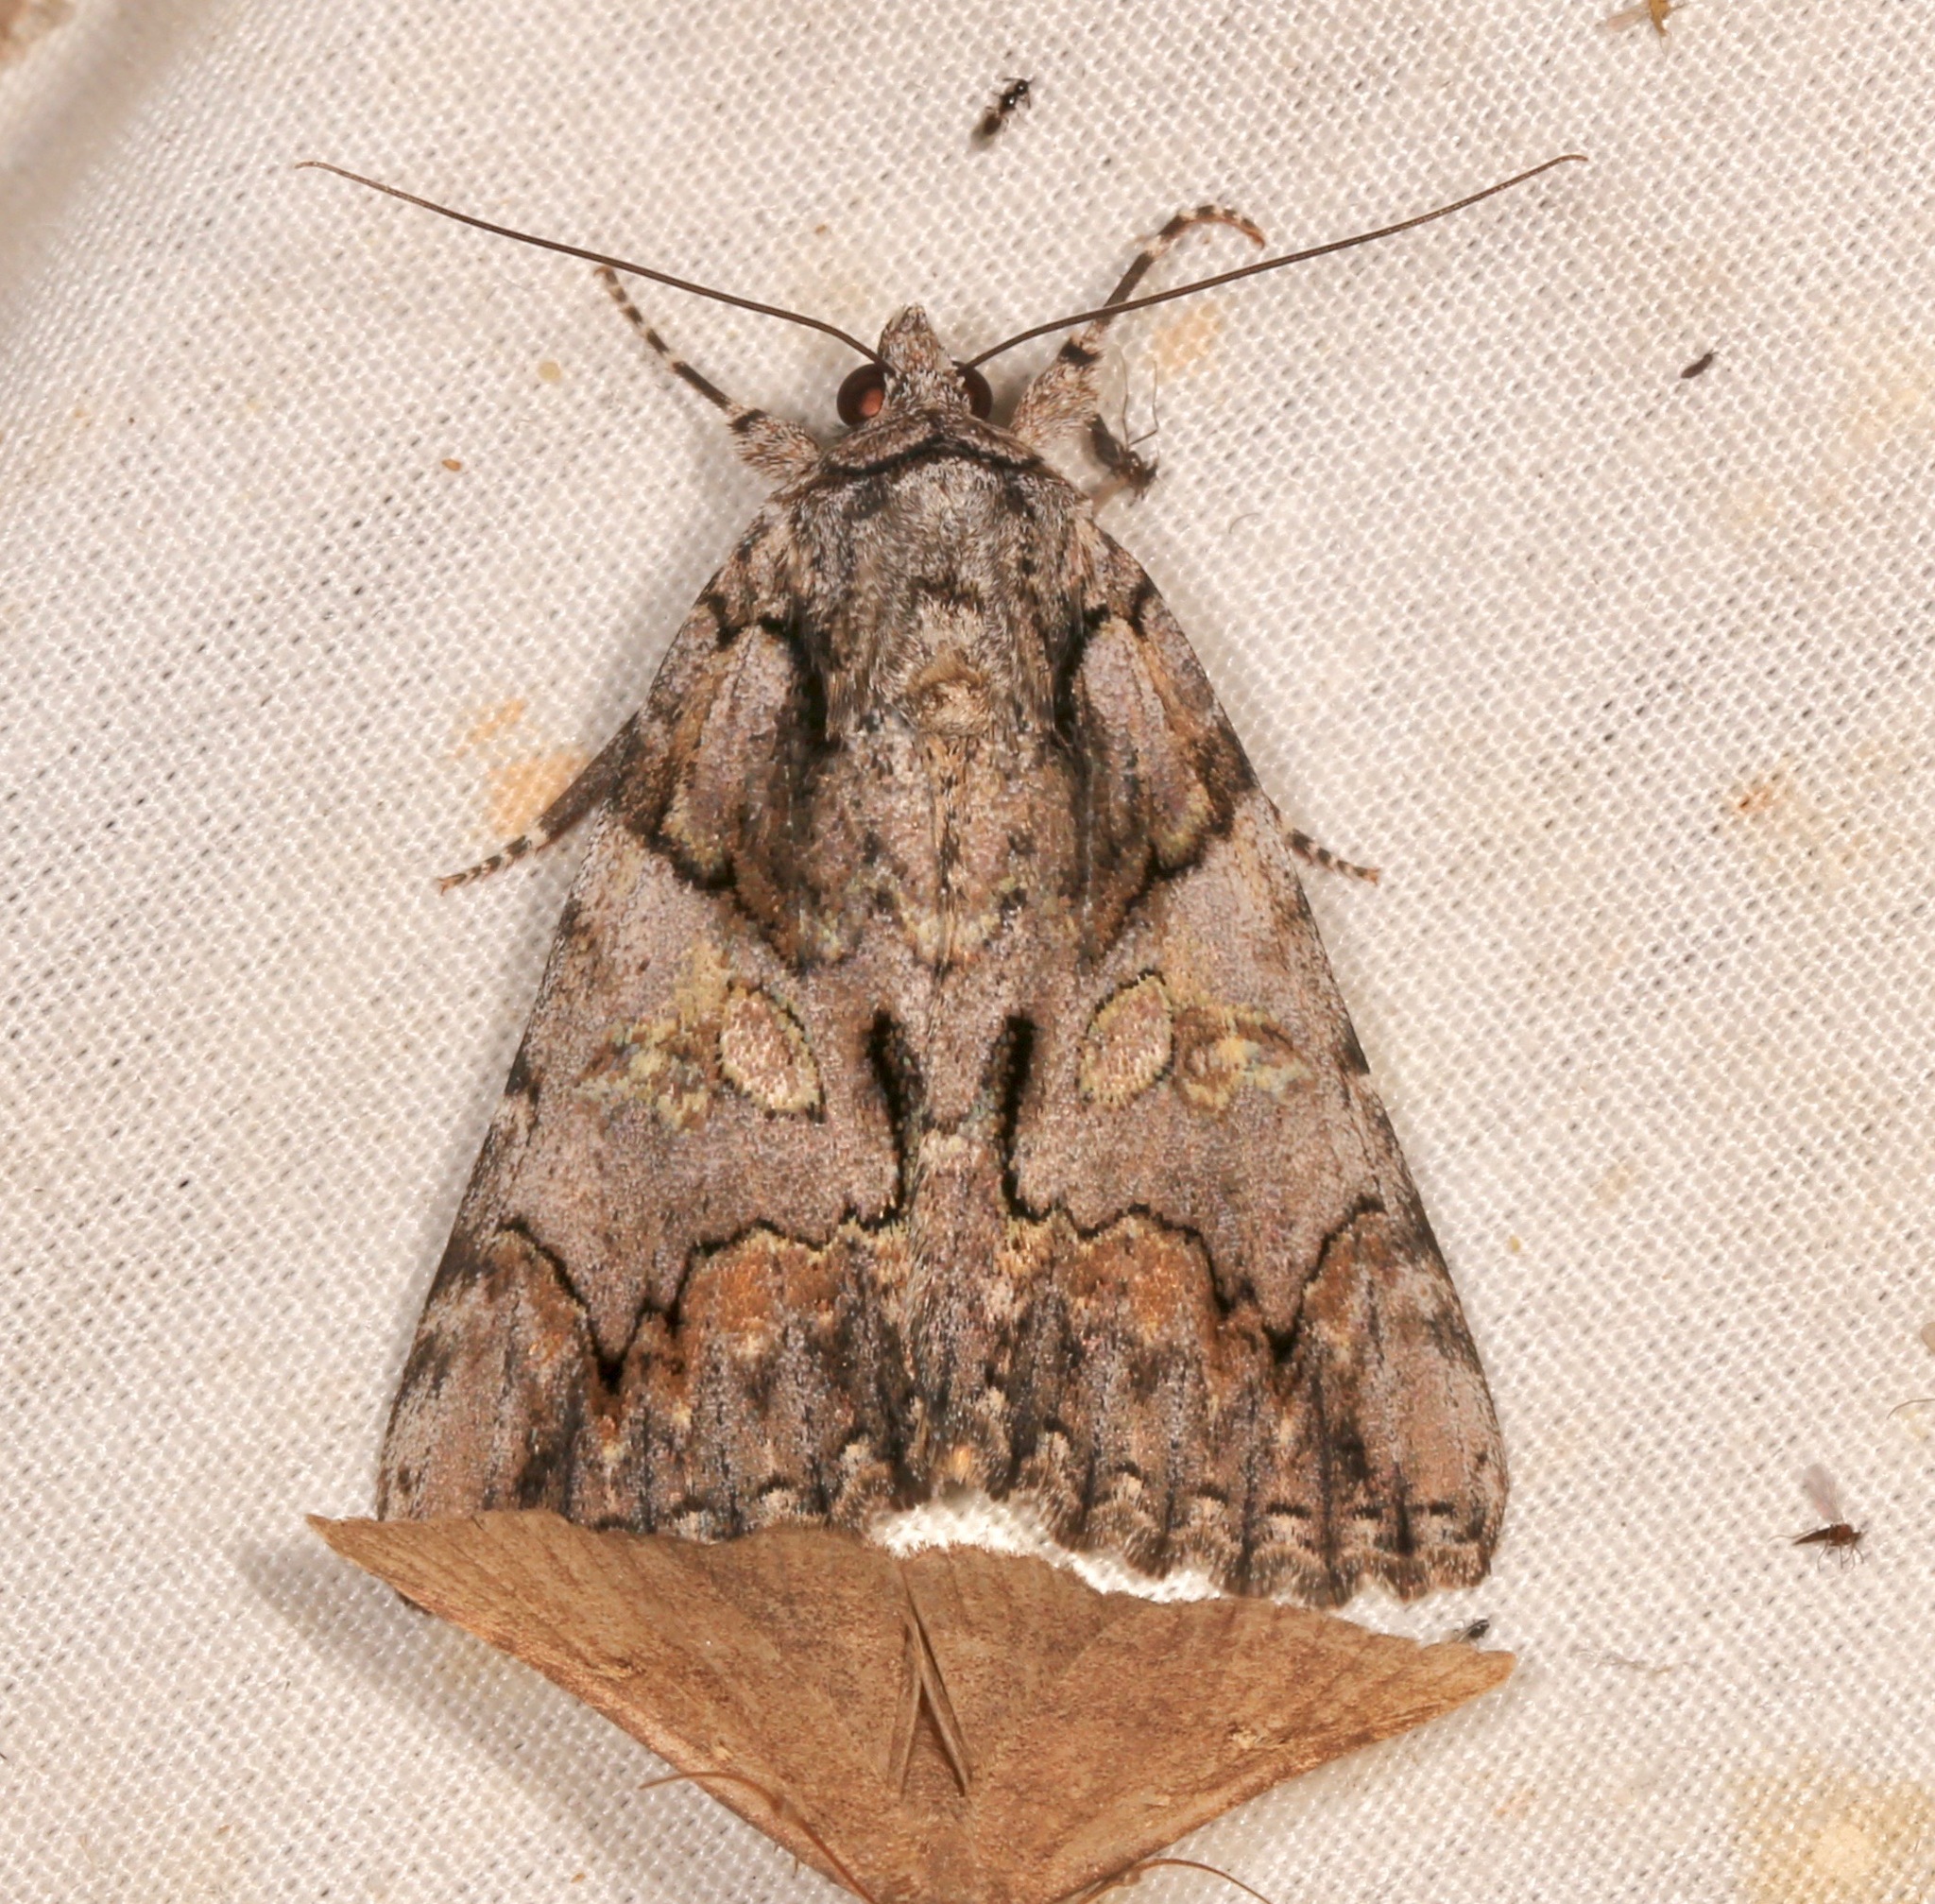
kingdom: Animalia
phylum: Arthropoda
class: Insecta
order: Lepidoptera
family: Erebidae
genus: Catocala
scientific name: Catocala verrilliana
